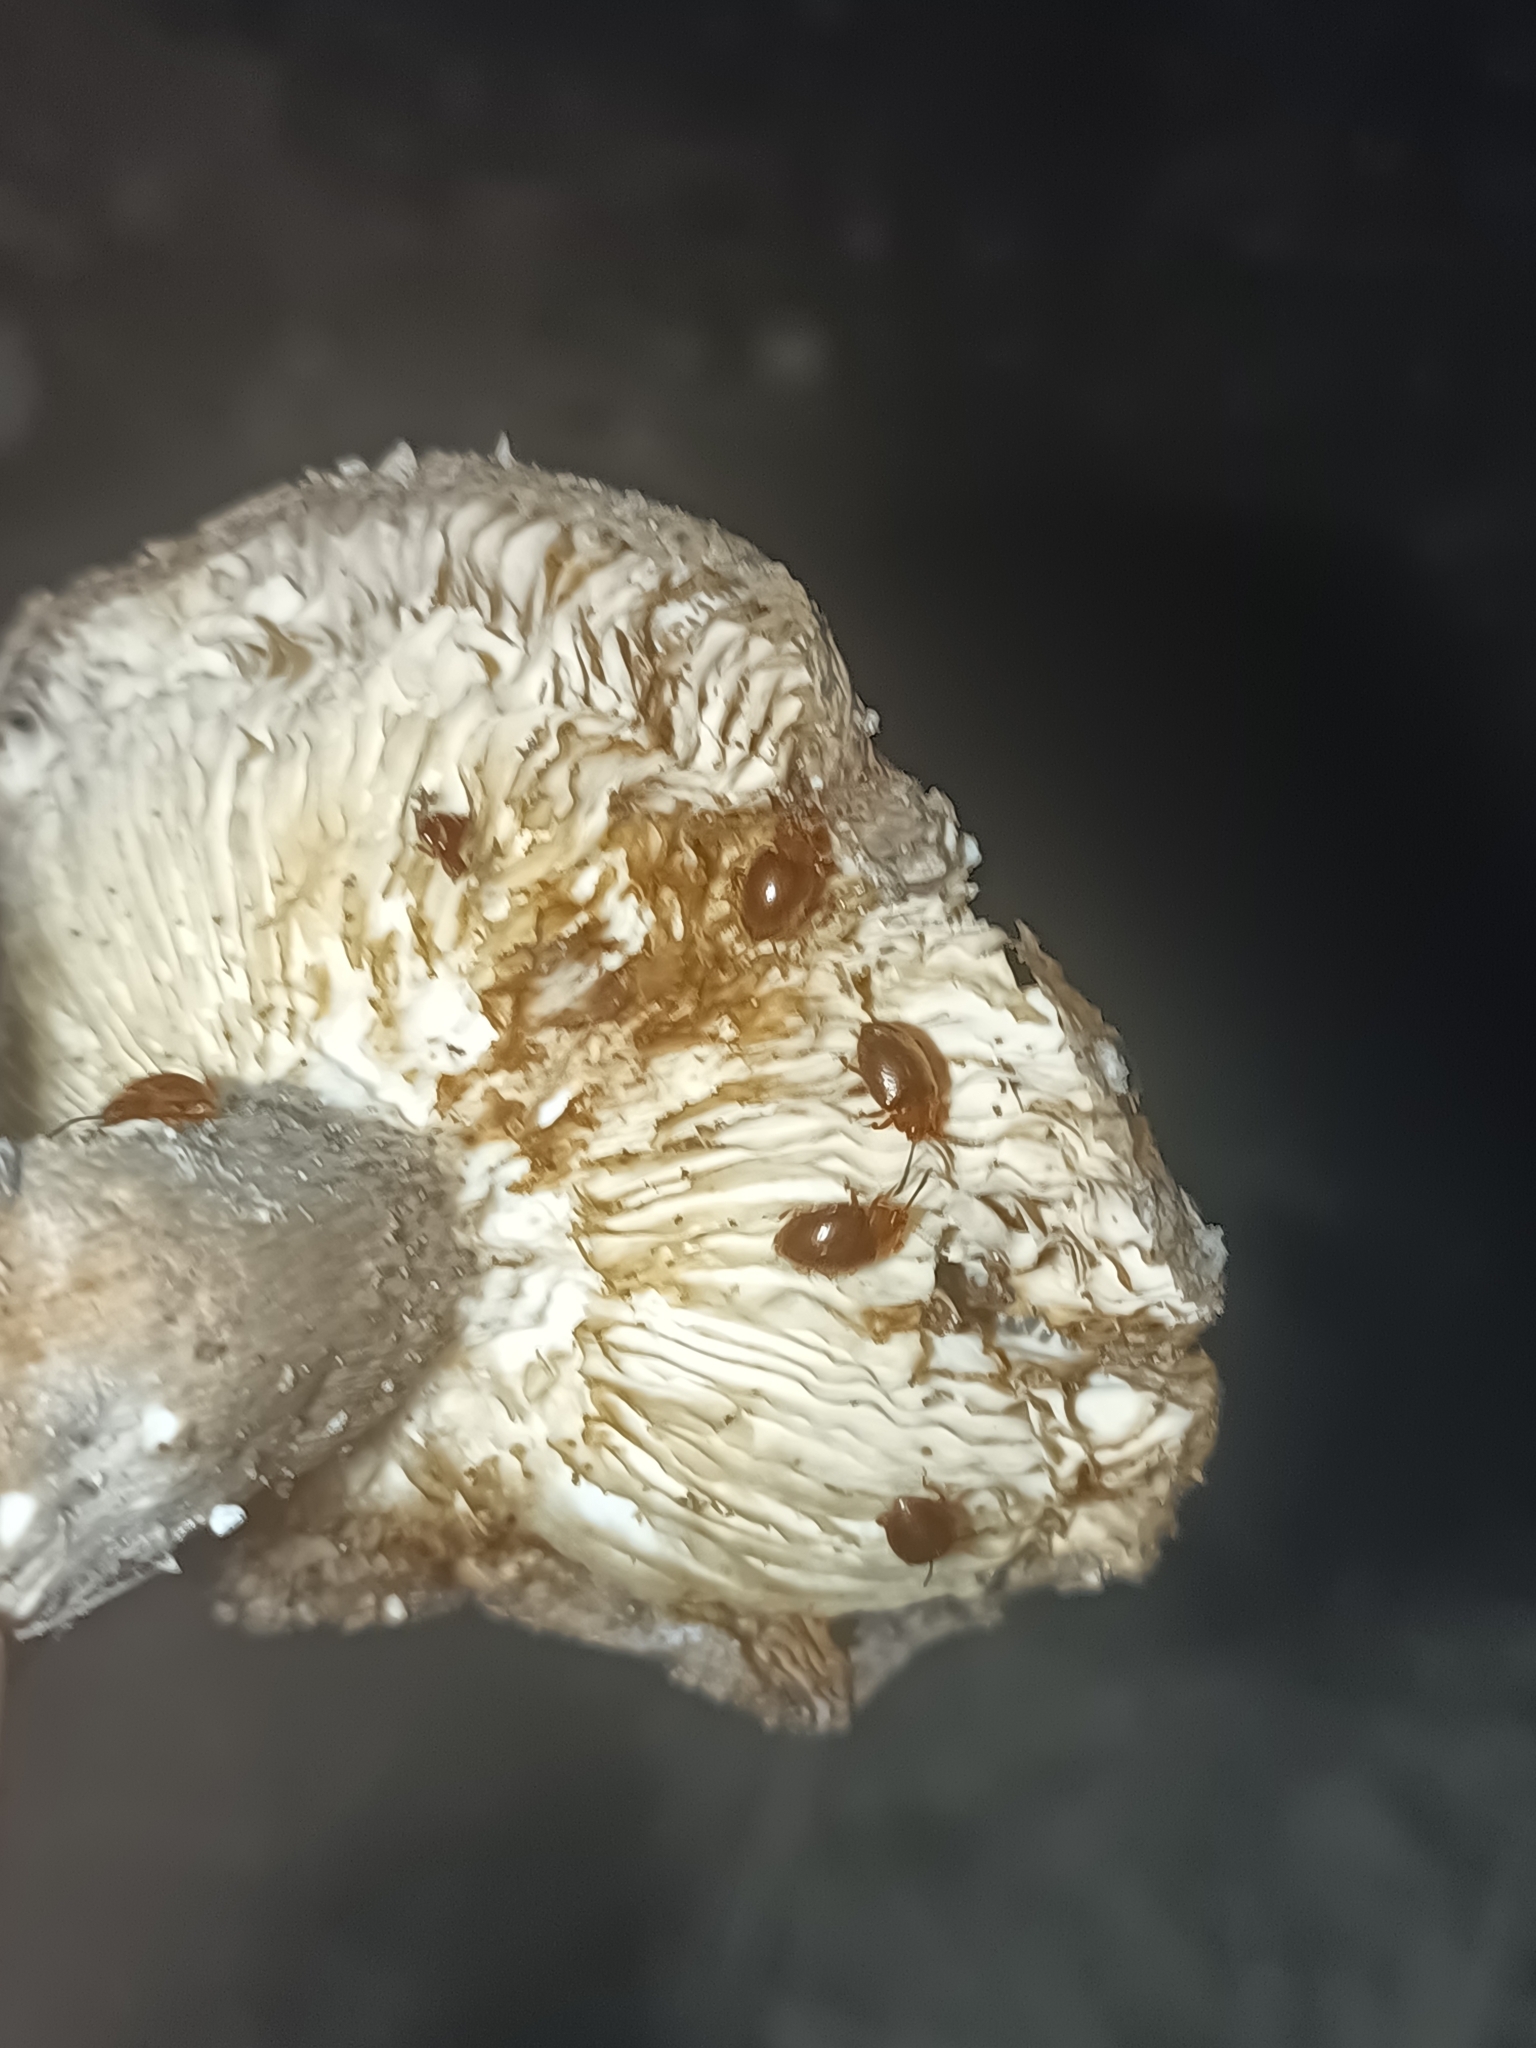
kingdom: Animalia
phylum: Arthropoda
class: Insecta
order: Coleoptera
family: Endomychidae
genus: Stenotarsus
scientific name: Stenotarsus latipes
